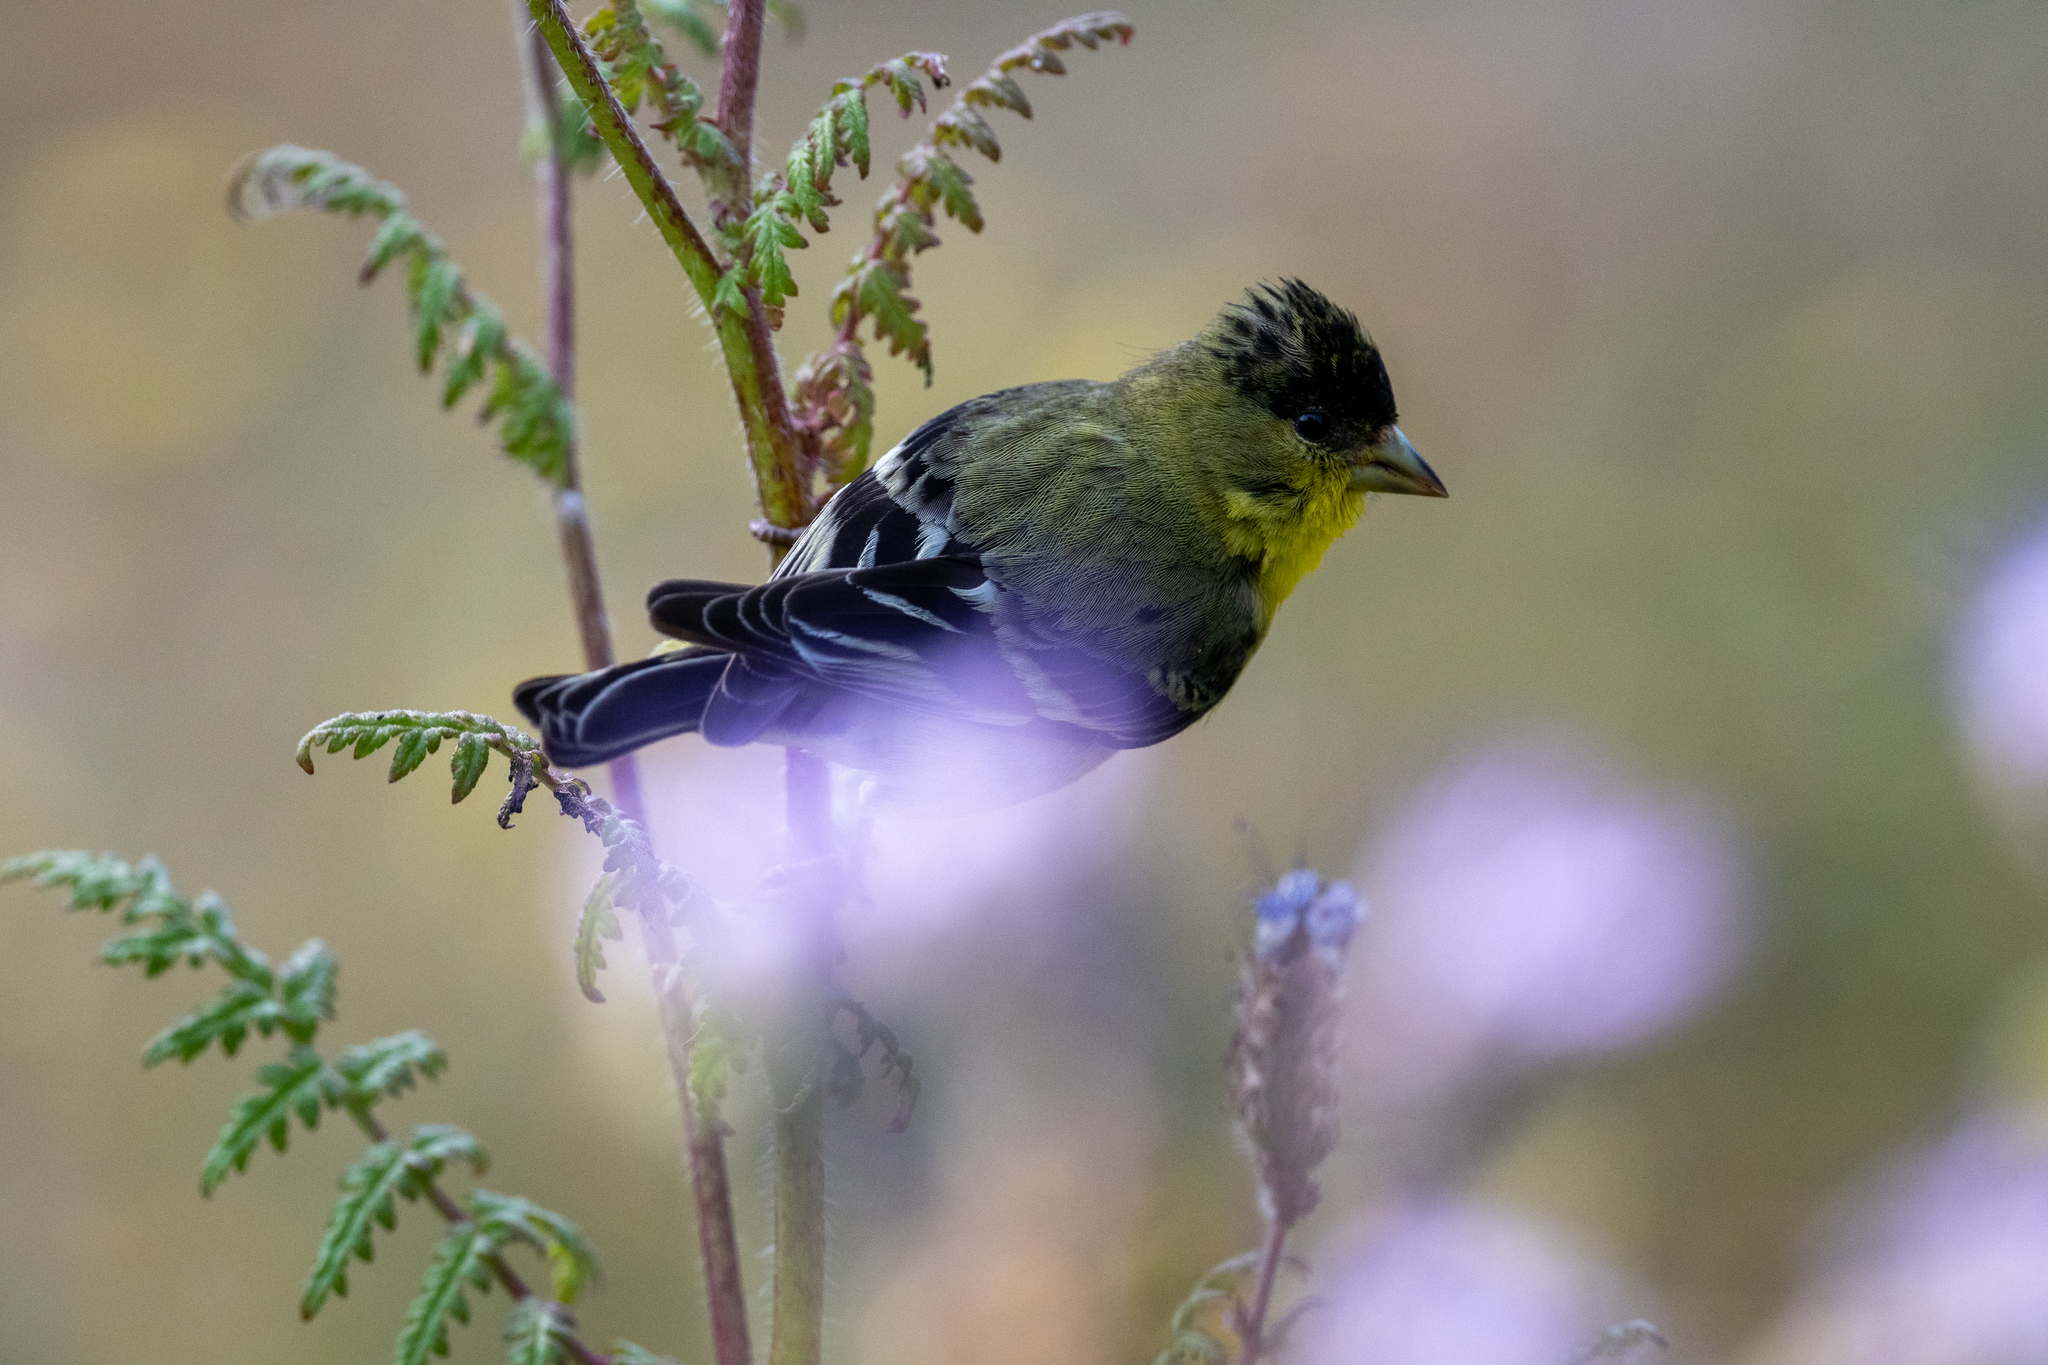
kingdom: Animalia
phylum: Chordata
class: Aves
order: Passeriformes
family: Fringillidae
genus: Spinus
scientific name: Spinus psaltria
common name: Lesser goldfinch
